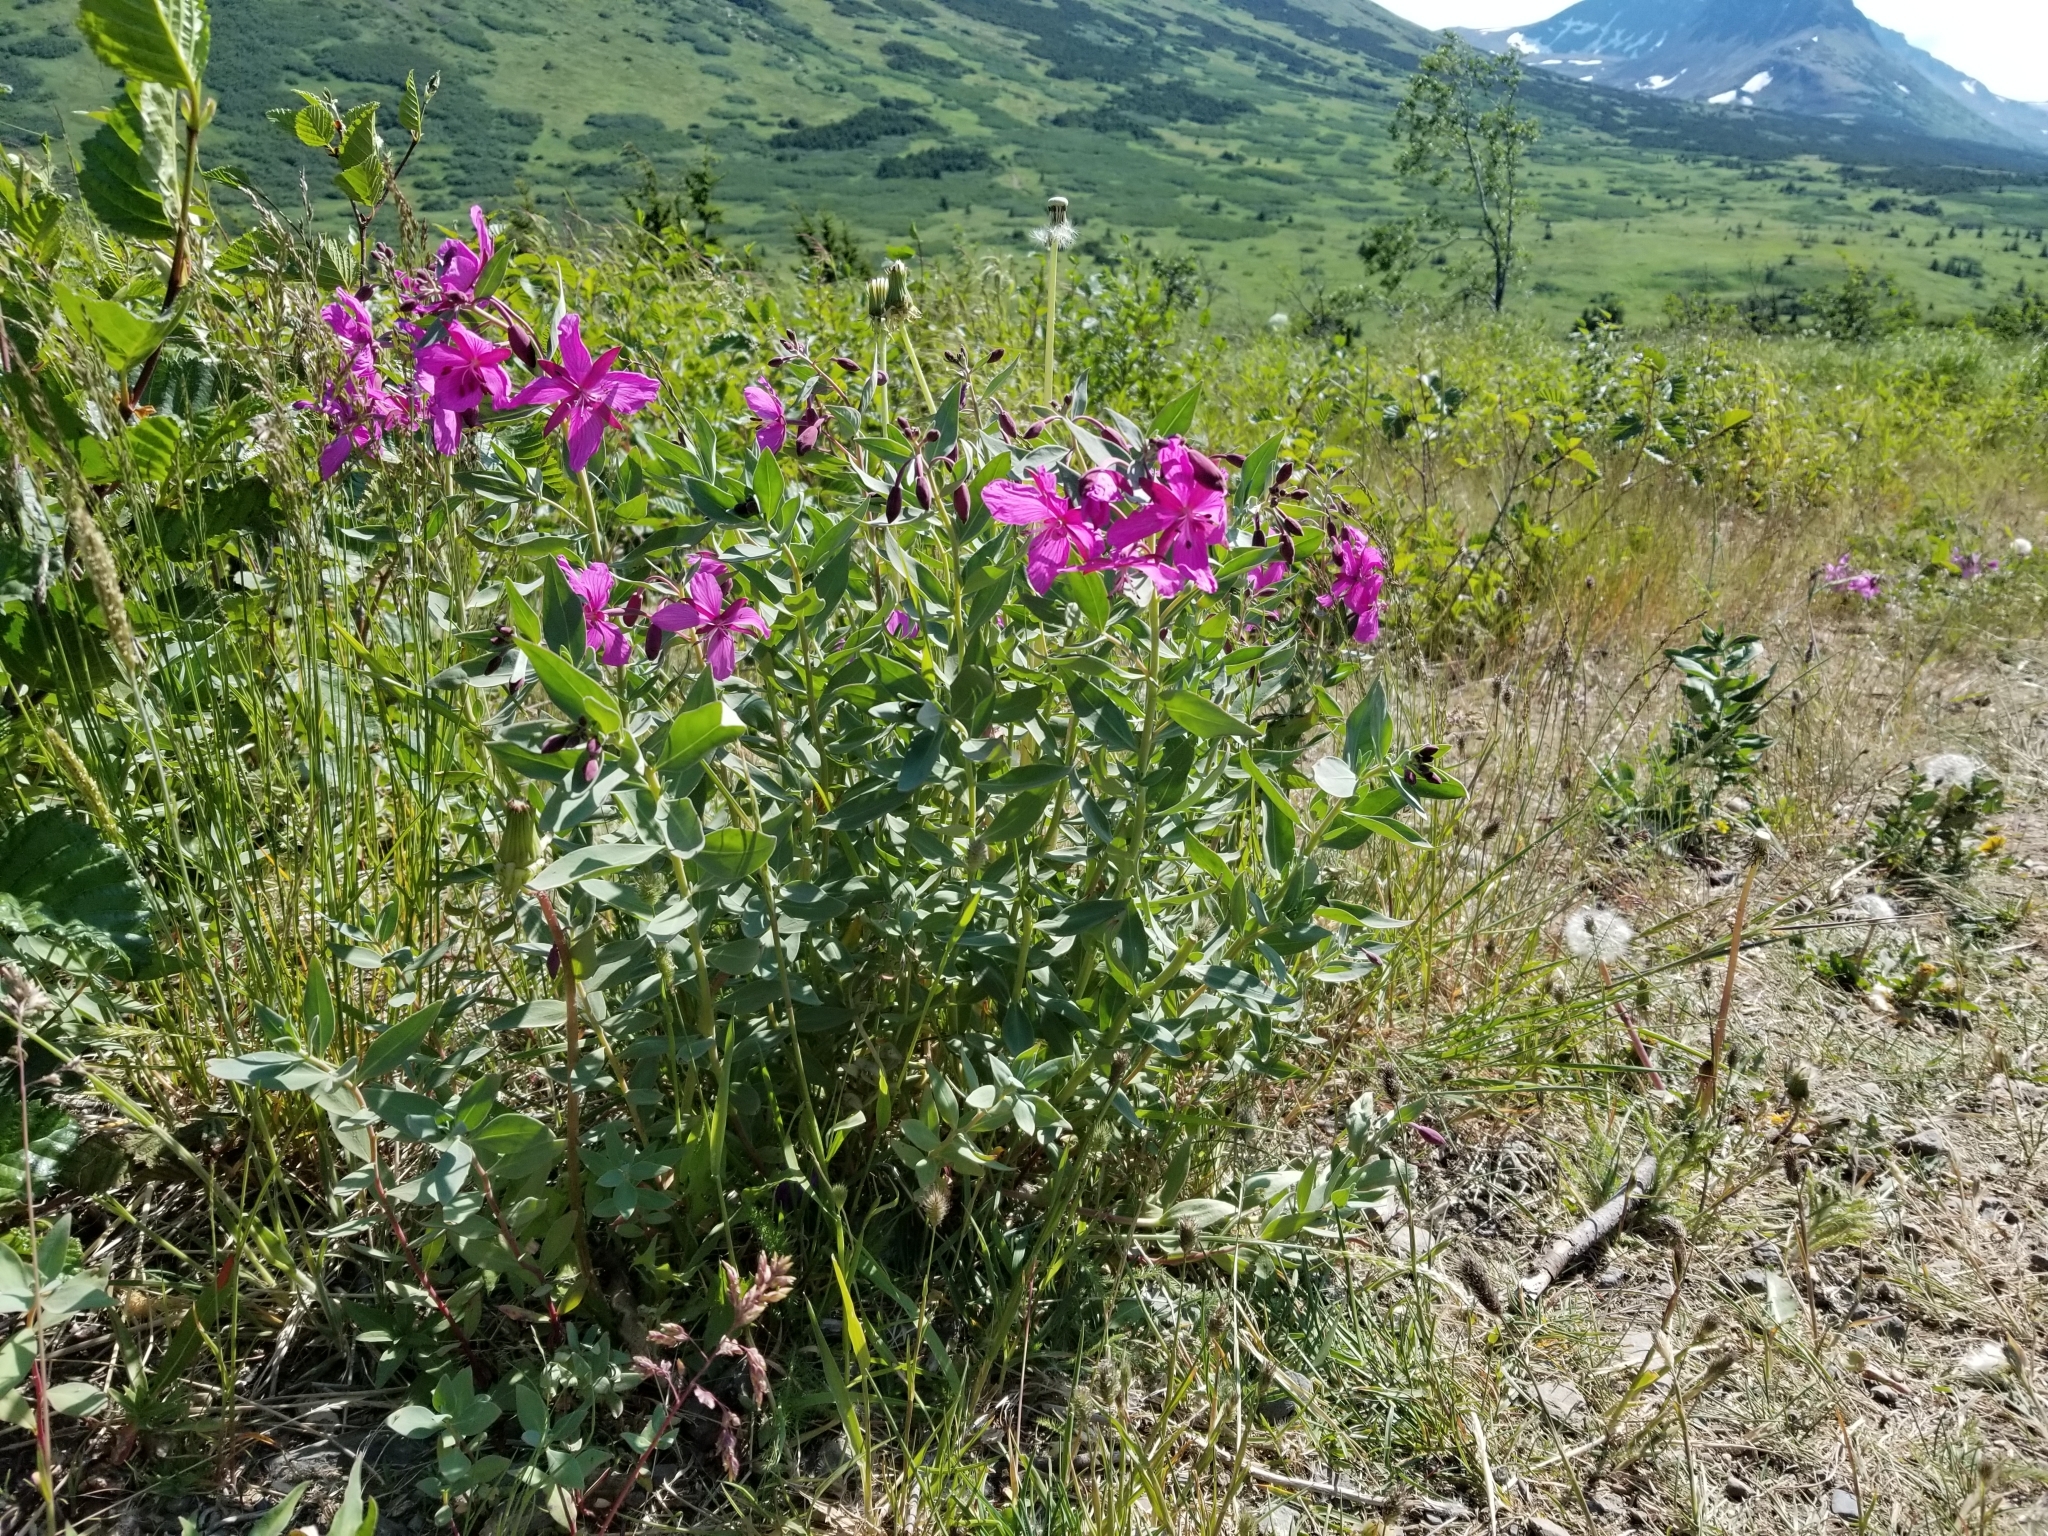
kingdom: Plantae
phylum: Tracheophyta
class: Magnoliopsida
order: Myrtales
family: Onagraceae
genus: Chamaenerion
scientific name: Chamaenerion latifolium
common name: Dwarf fireweed
